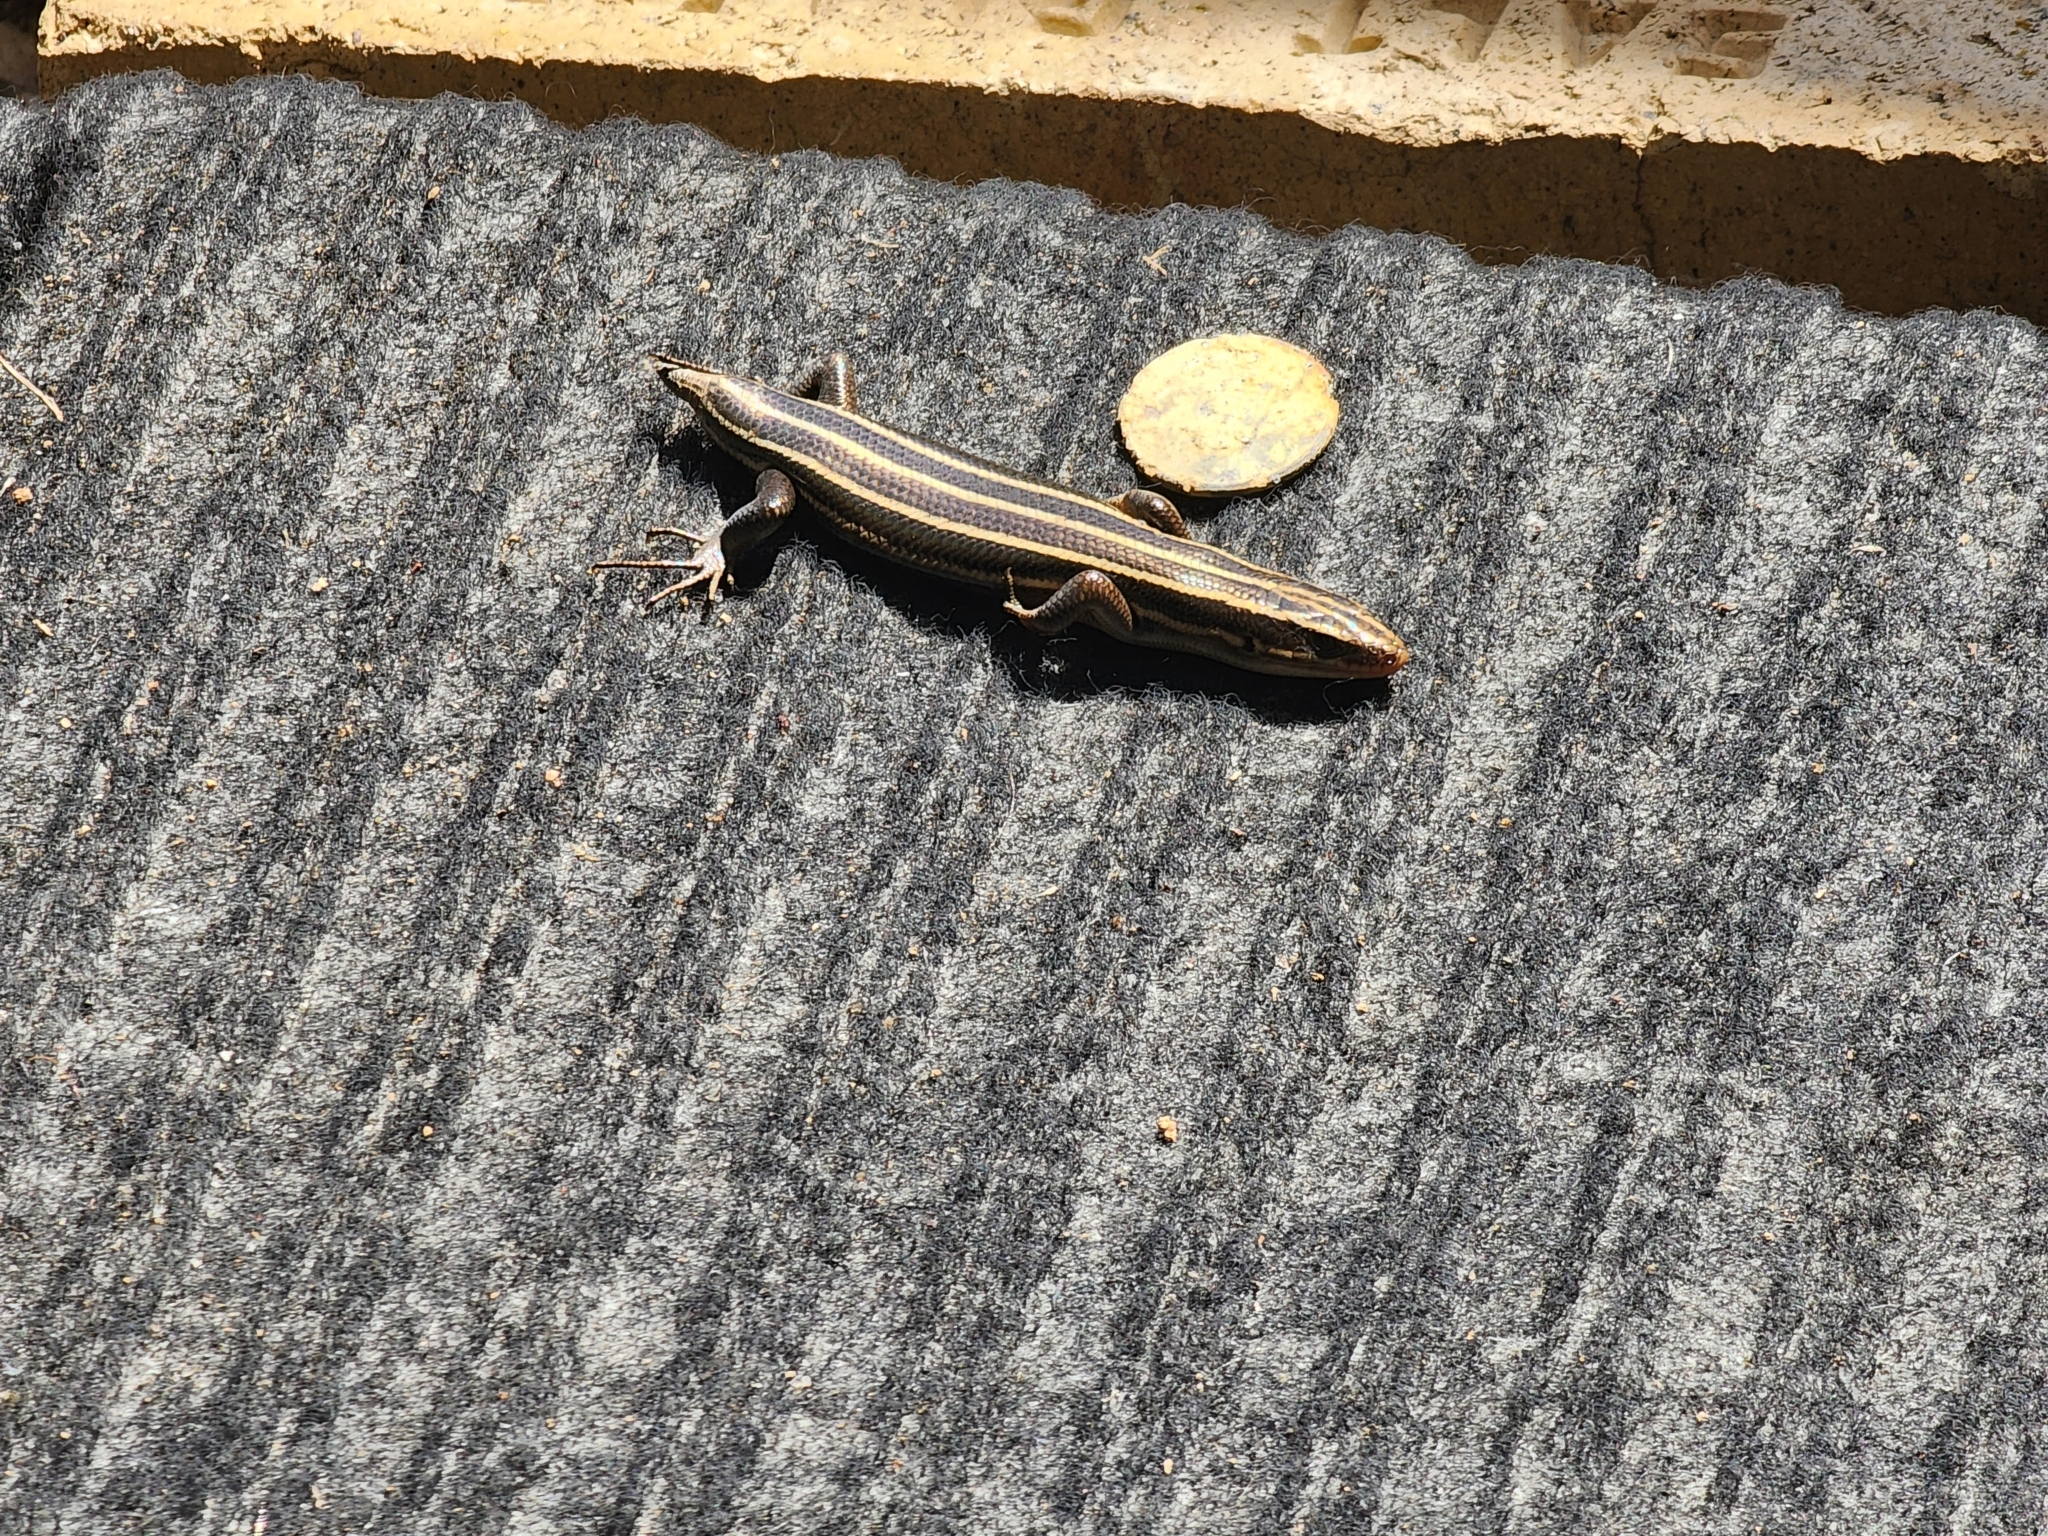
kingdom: Animalia
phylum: Chordata
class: Squamata
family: Scincidae
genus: Plestiodon
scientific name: Plestiodon fasciatus
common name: Five-lined skink
